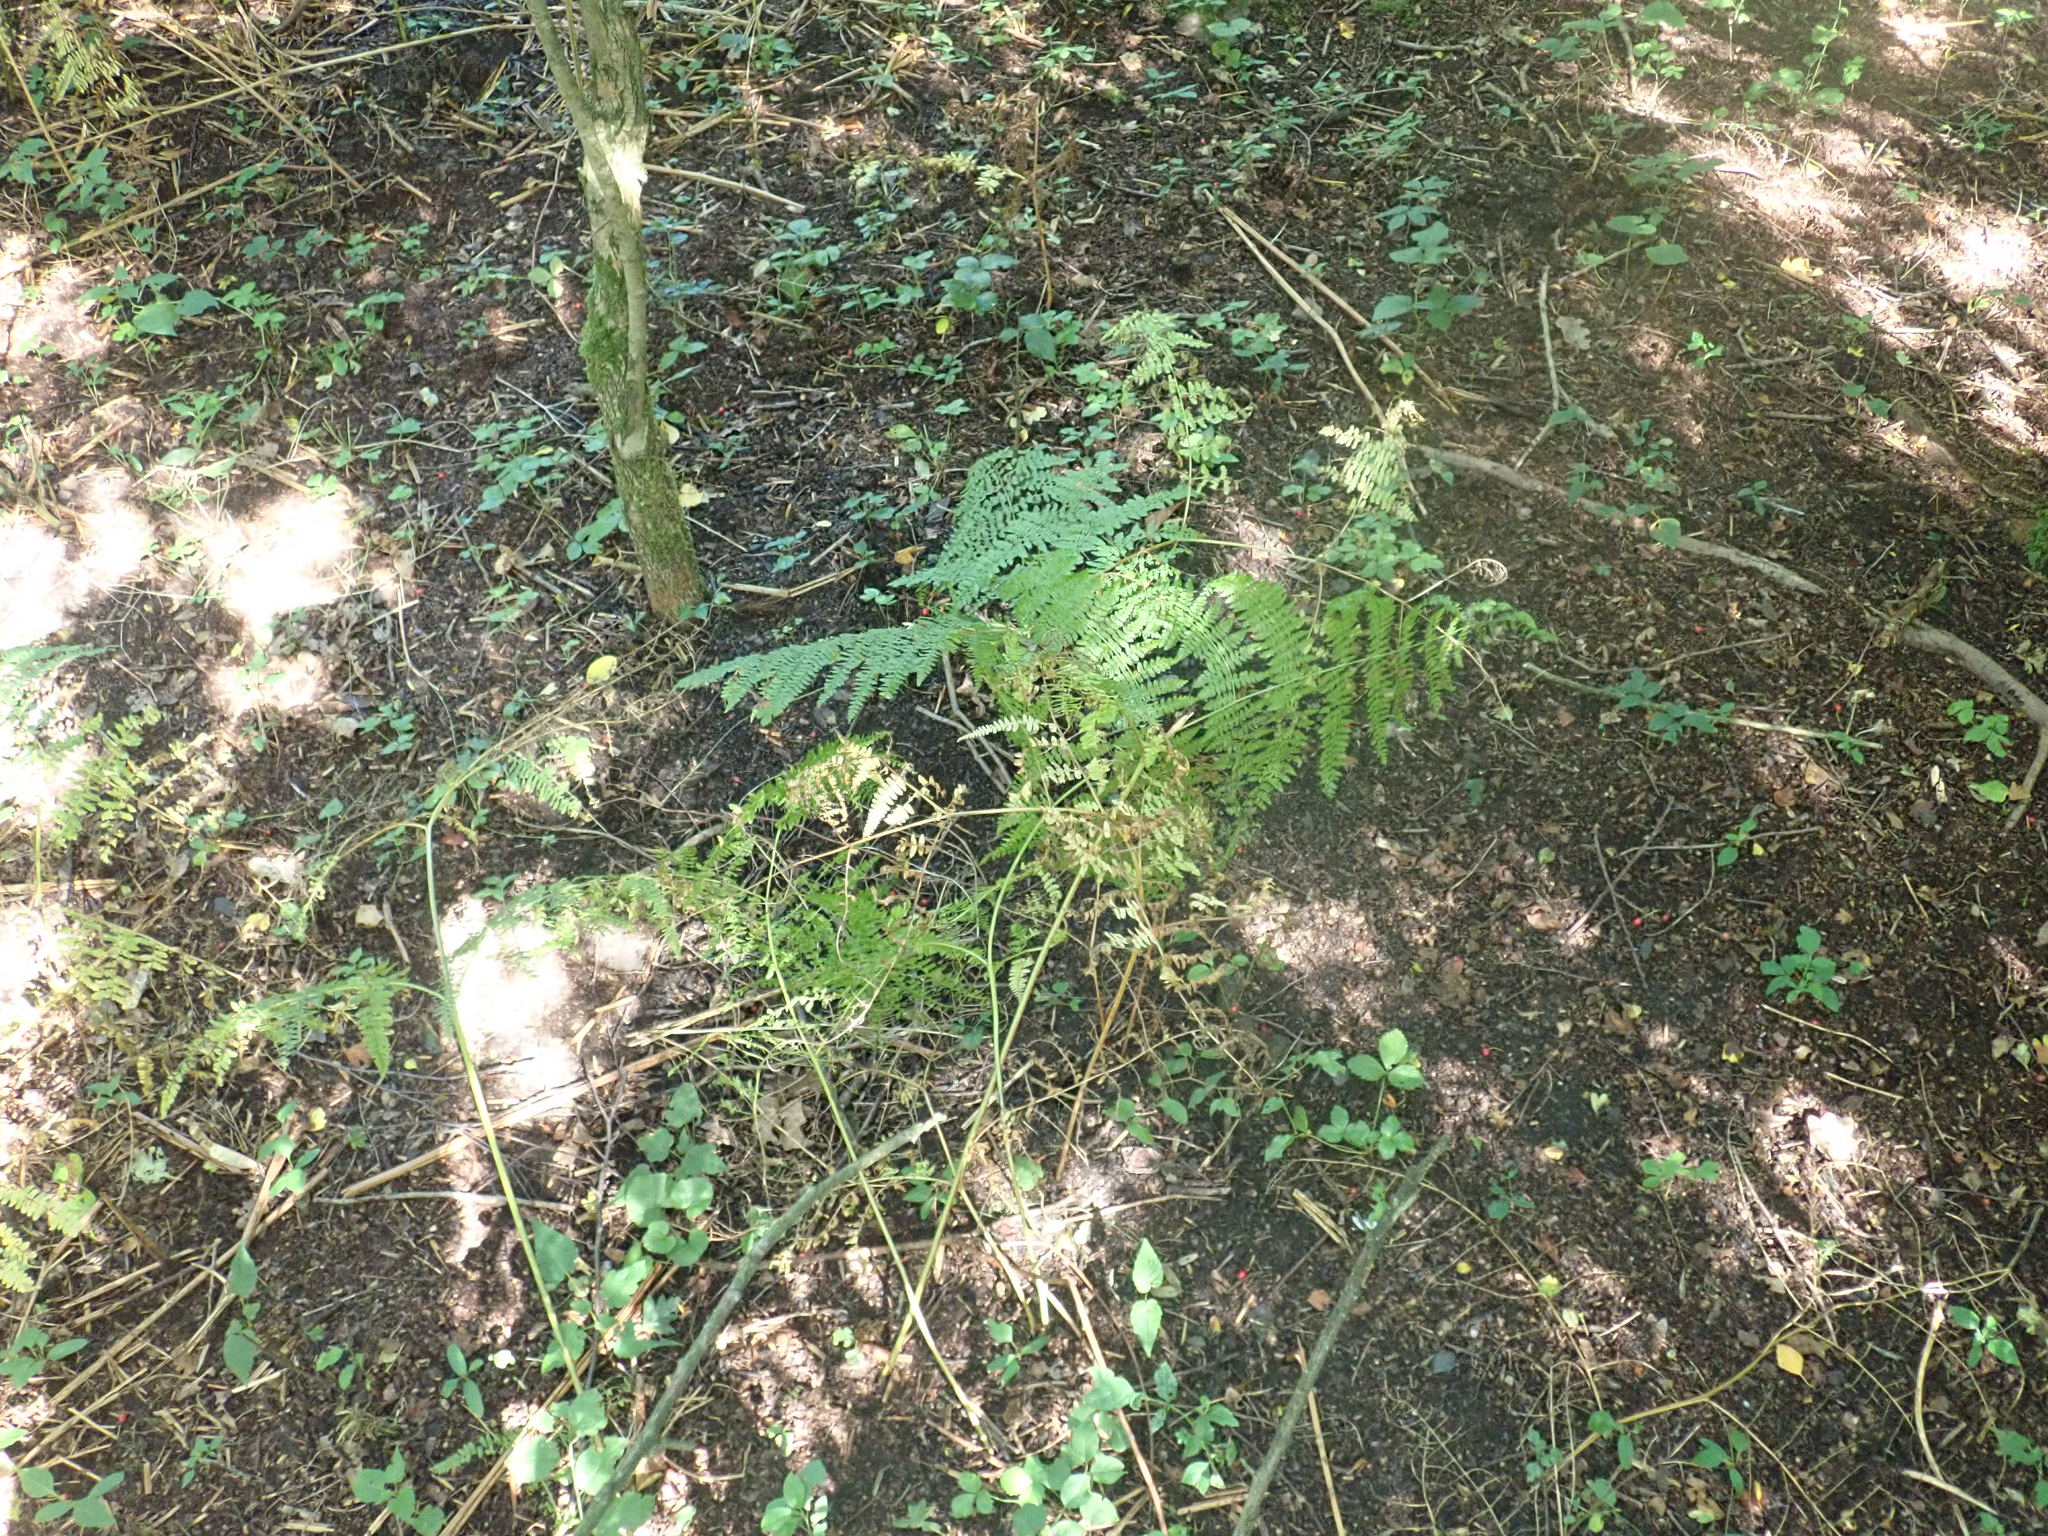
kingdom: Plantae
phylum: Tracheophyta
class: Polypodiopsida
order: Polypodiales
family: Dennstaedtiaceae
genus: Pteridium
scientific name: Pteridium aquilinum
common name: Bracken
